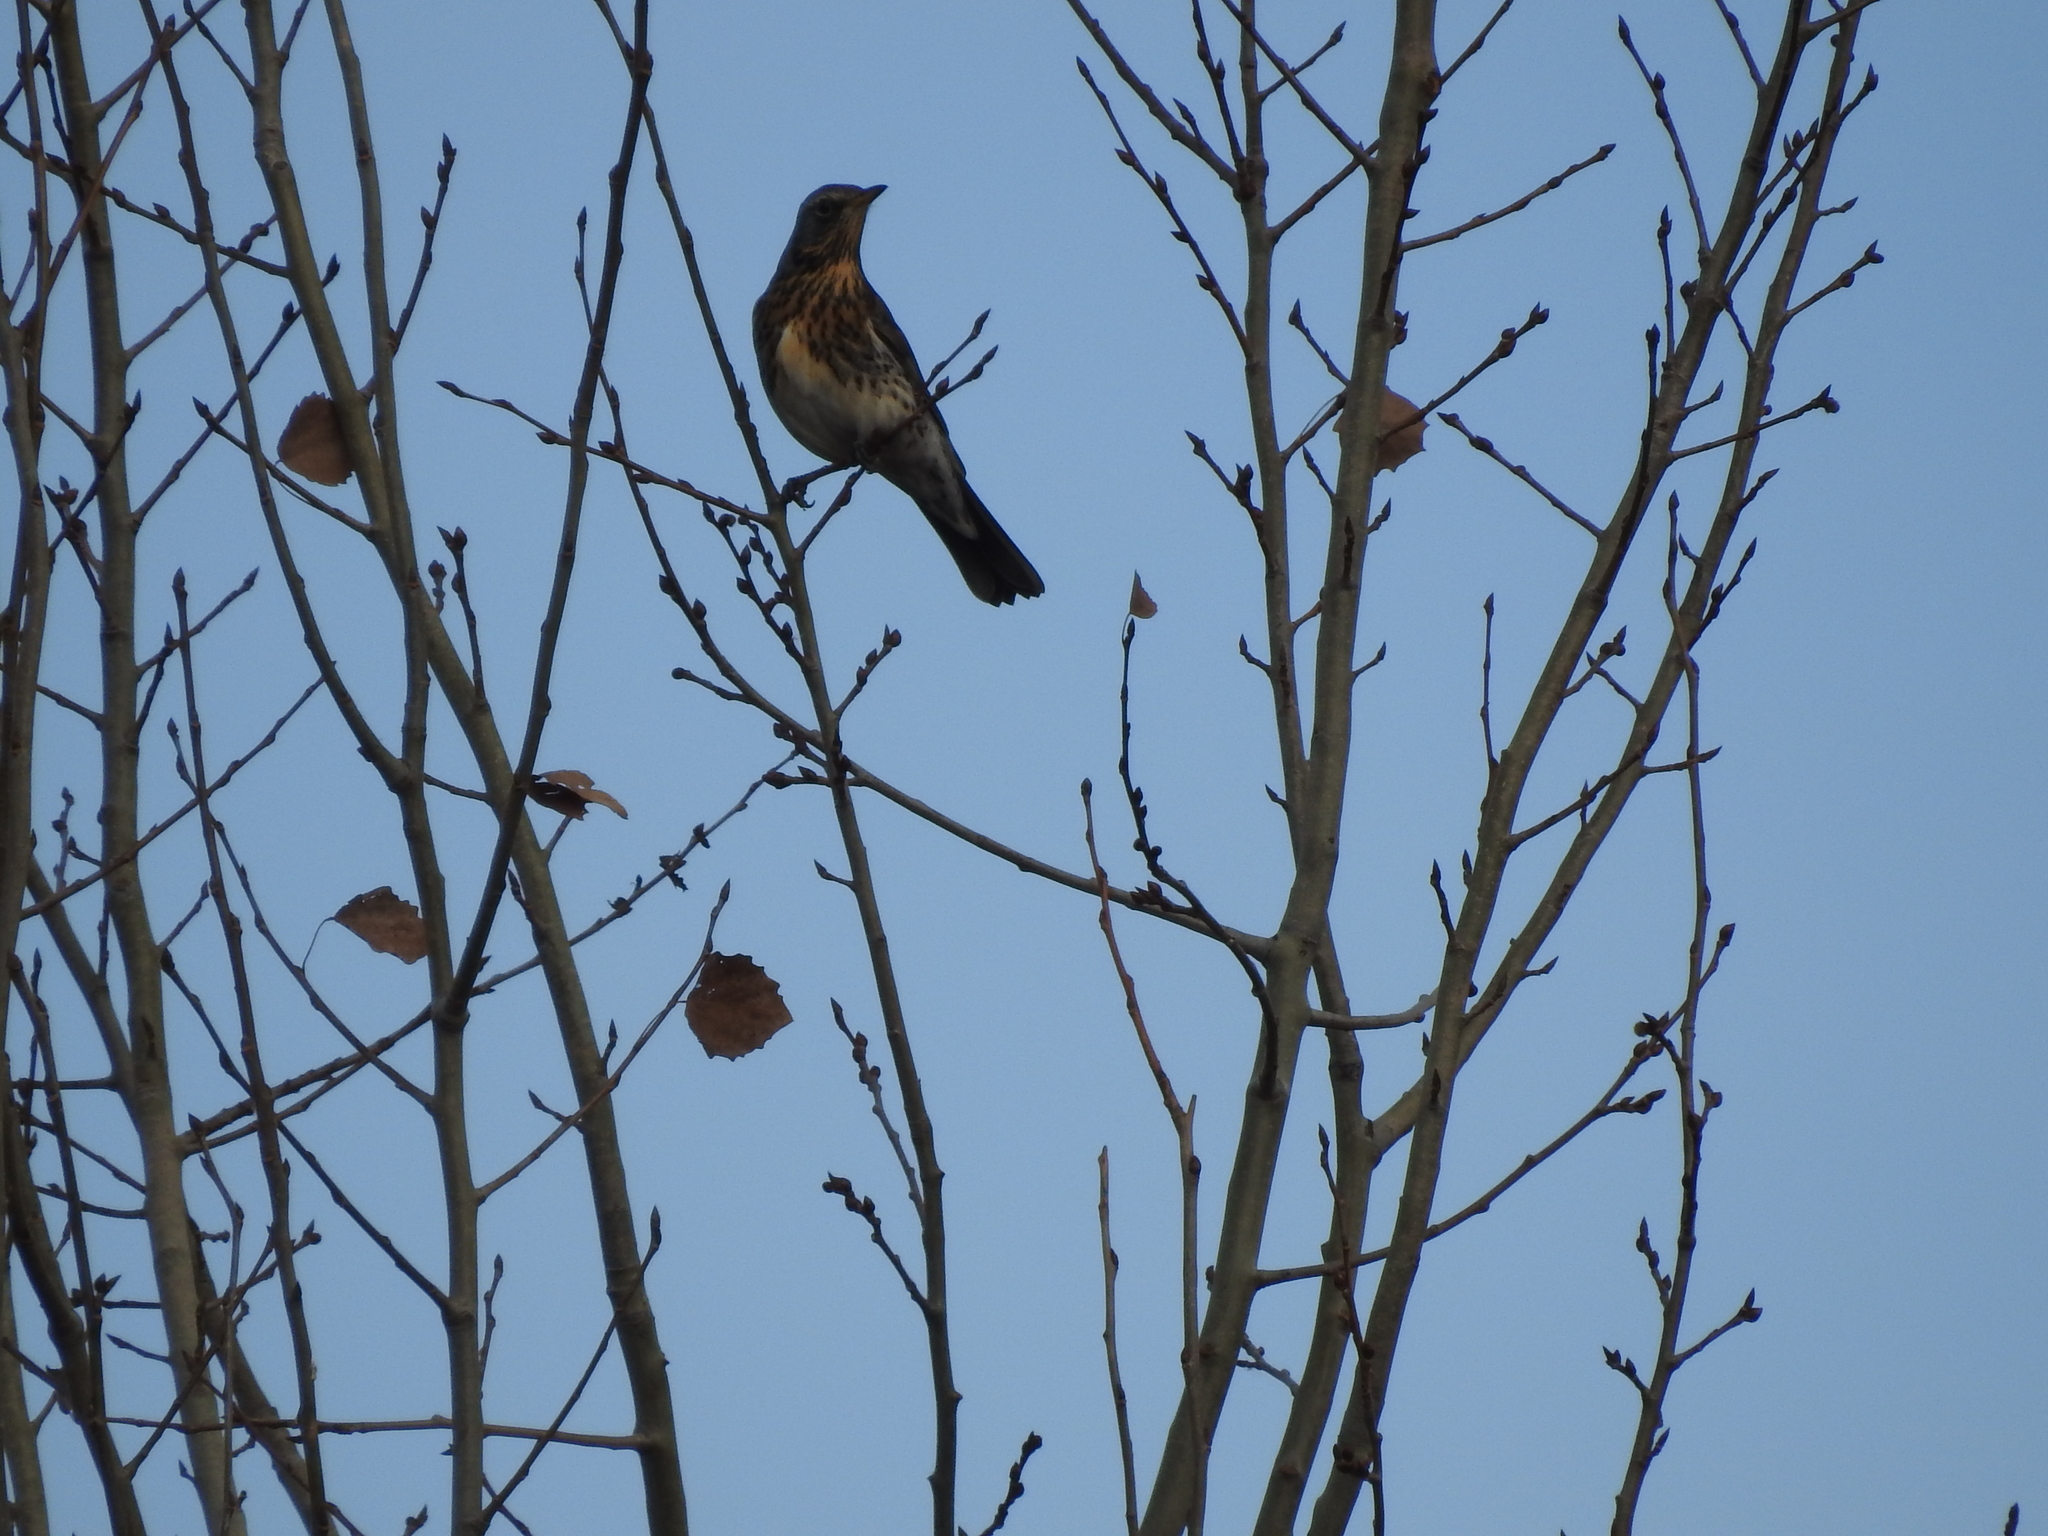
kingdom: Animalia
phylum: Chordata
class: Aves
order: Passeriformes
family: Turdidae
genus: Turdus
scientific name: Turdus pilaris
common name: Fieldfare
